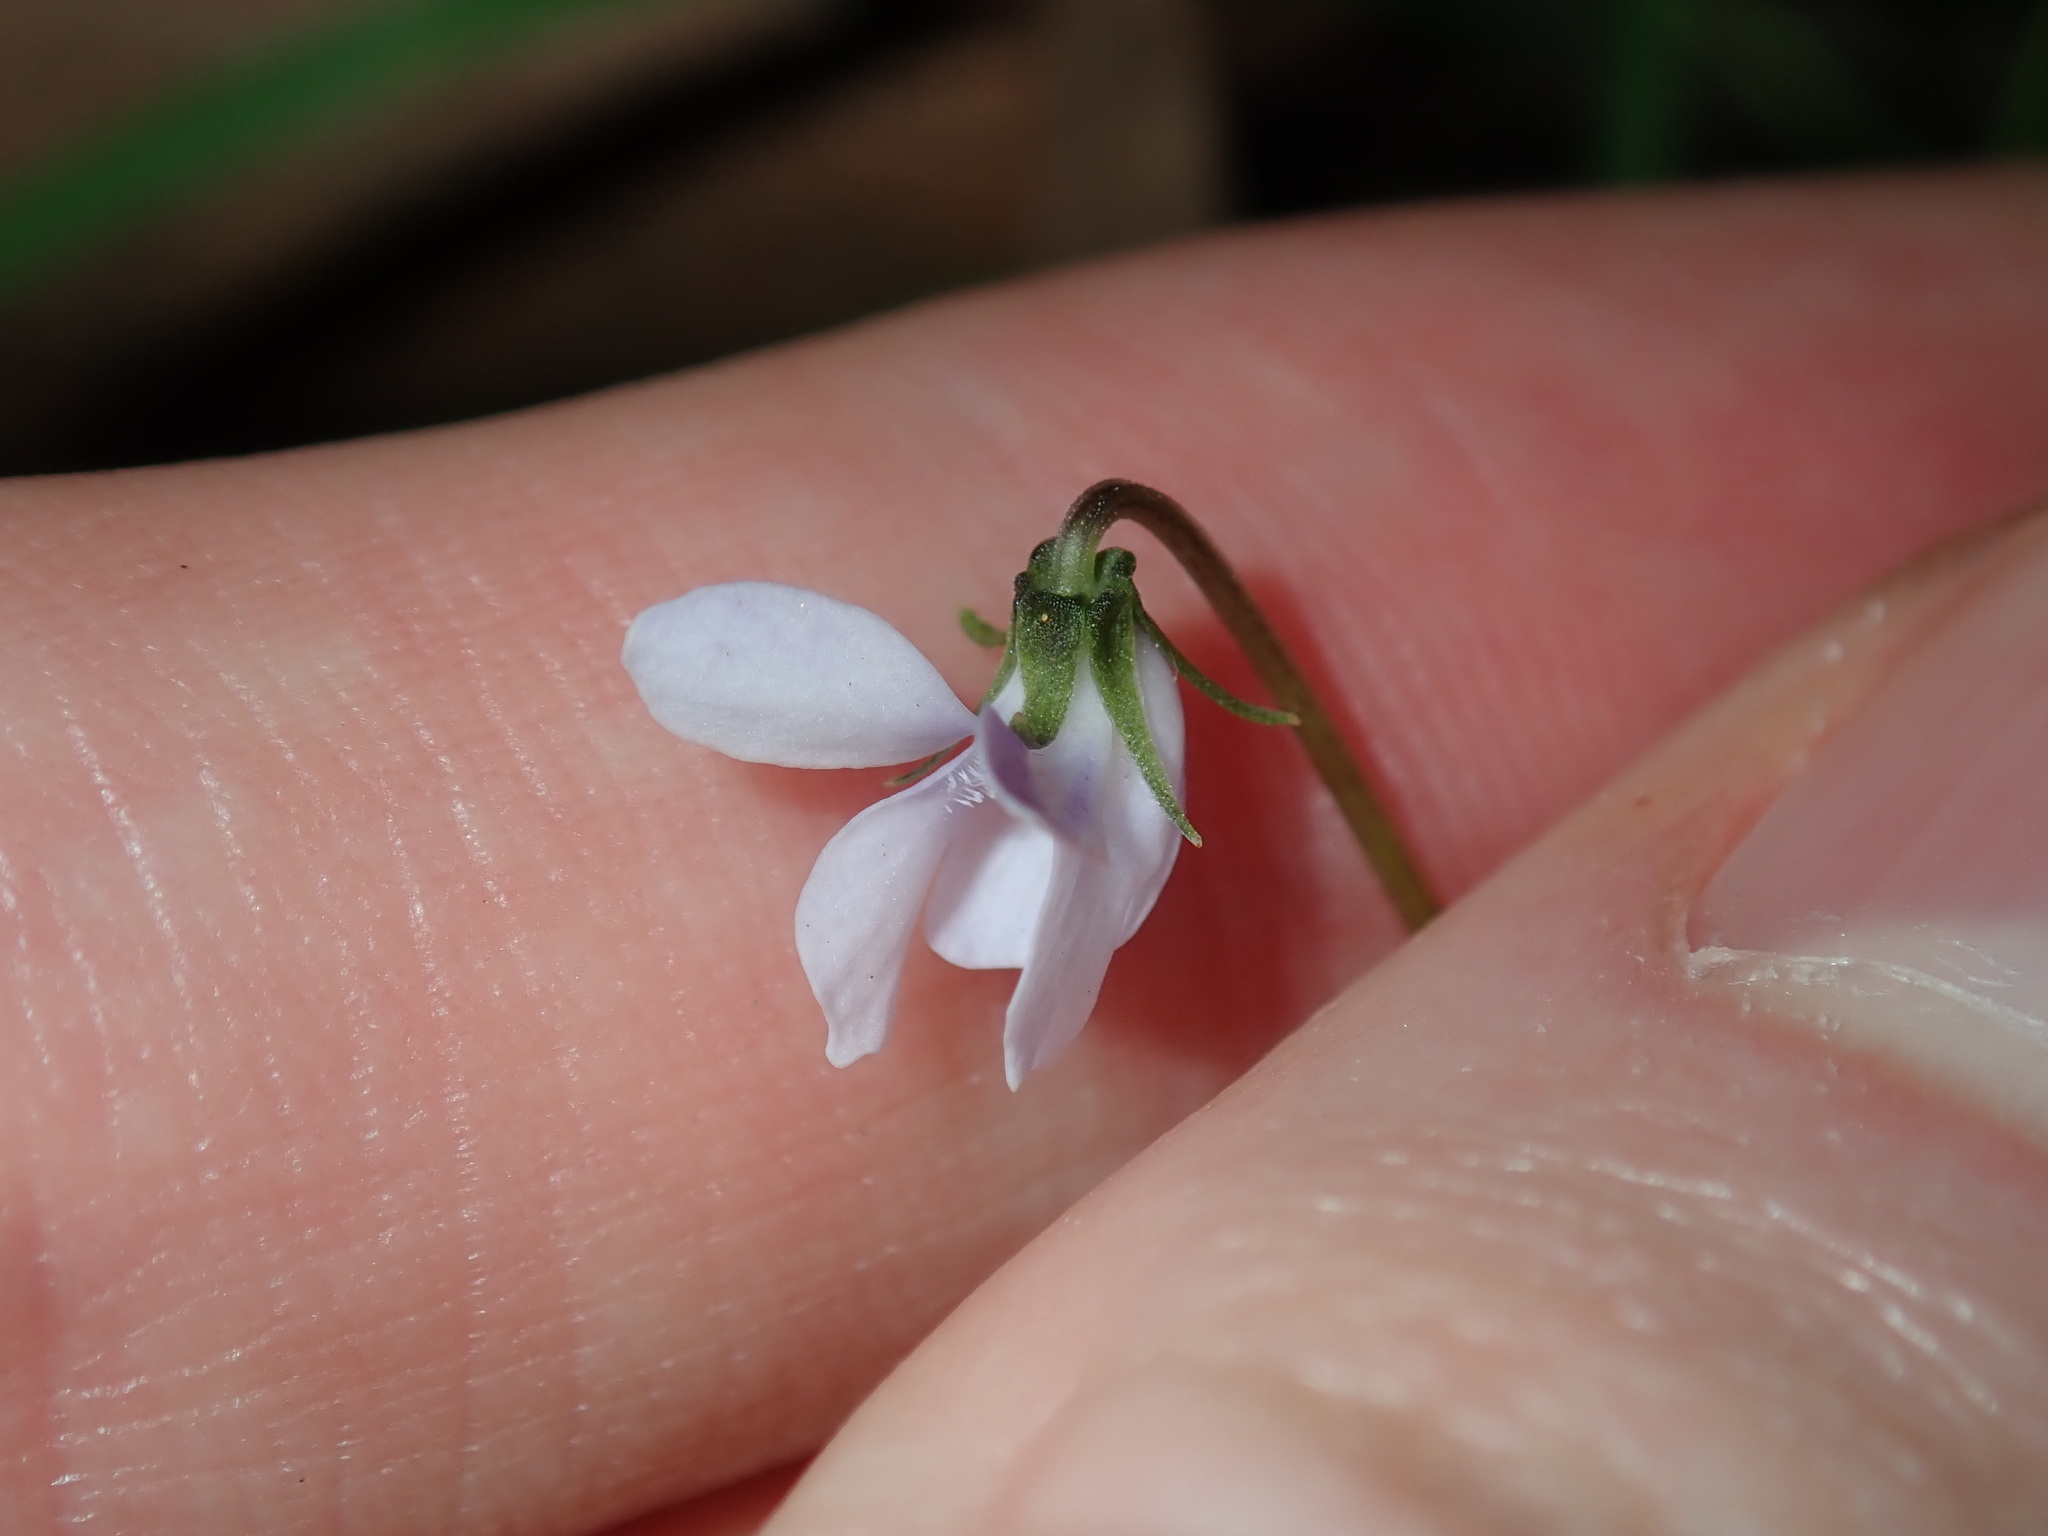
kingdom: Plantae
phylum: Tracheophyta
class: Magnoliopsida
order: Malpighiales
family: Violaceae
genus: Viola
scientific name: Viola silicestris
